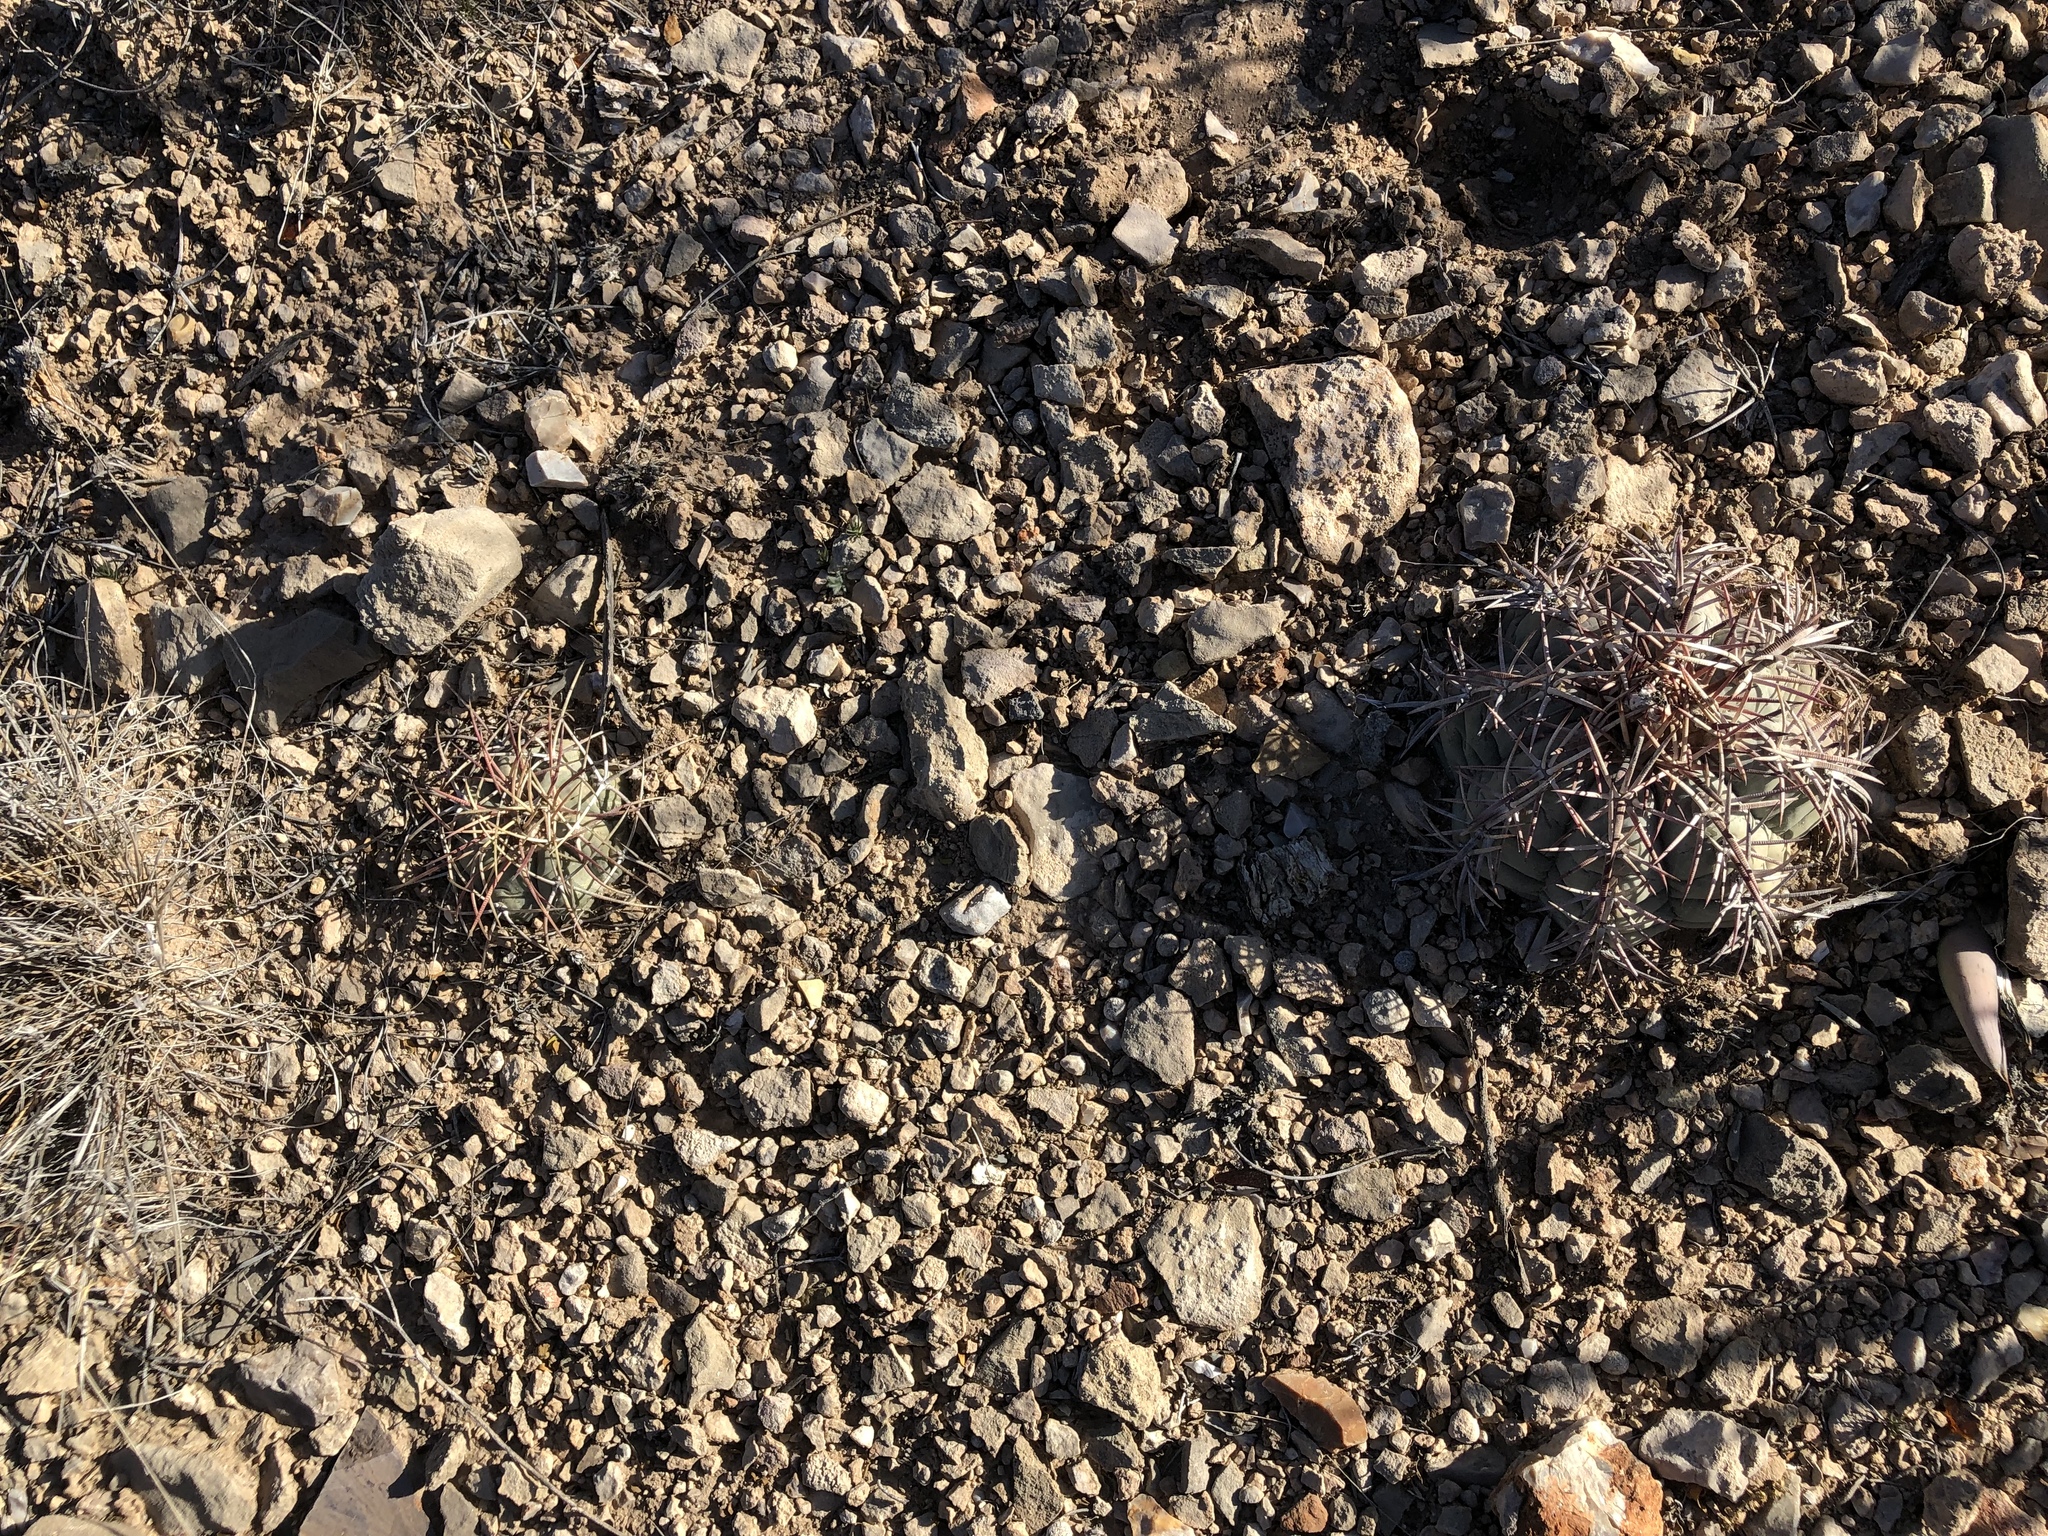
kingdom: Plantae
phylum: Tracheophyta
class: Magnoliopsida
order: Caryophyllales
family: Cactaceae
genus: Echinocactus
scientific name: Echinocactus horizonthalonius
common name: Devilshead
